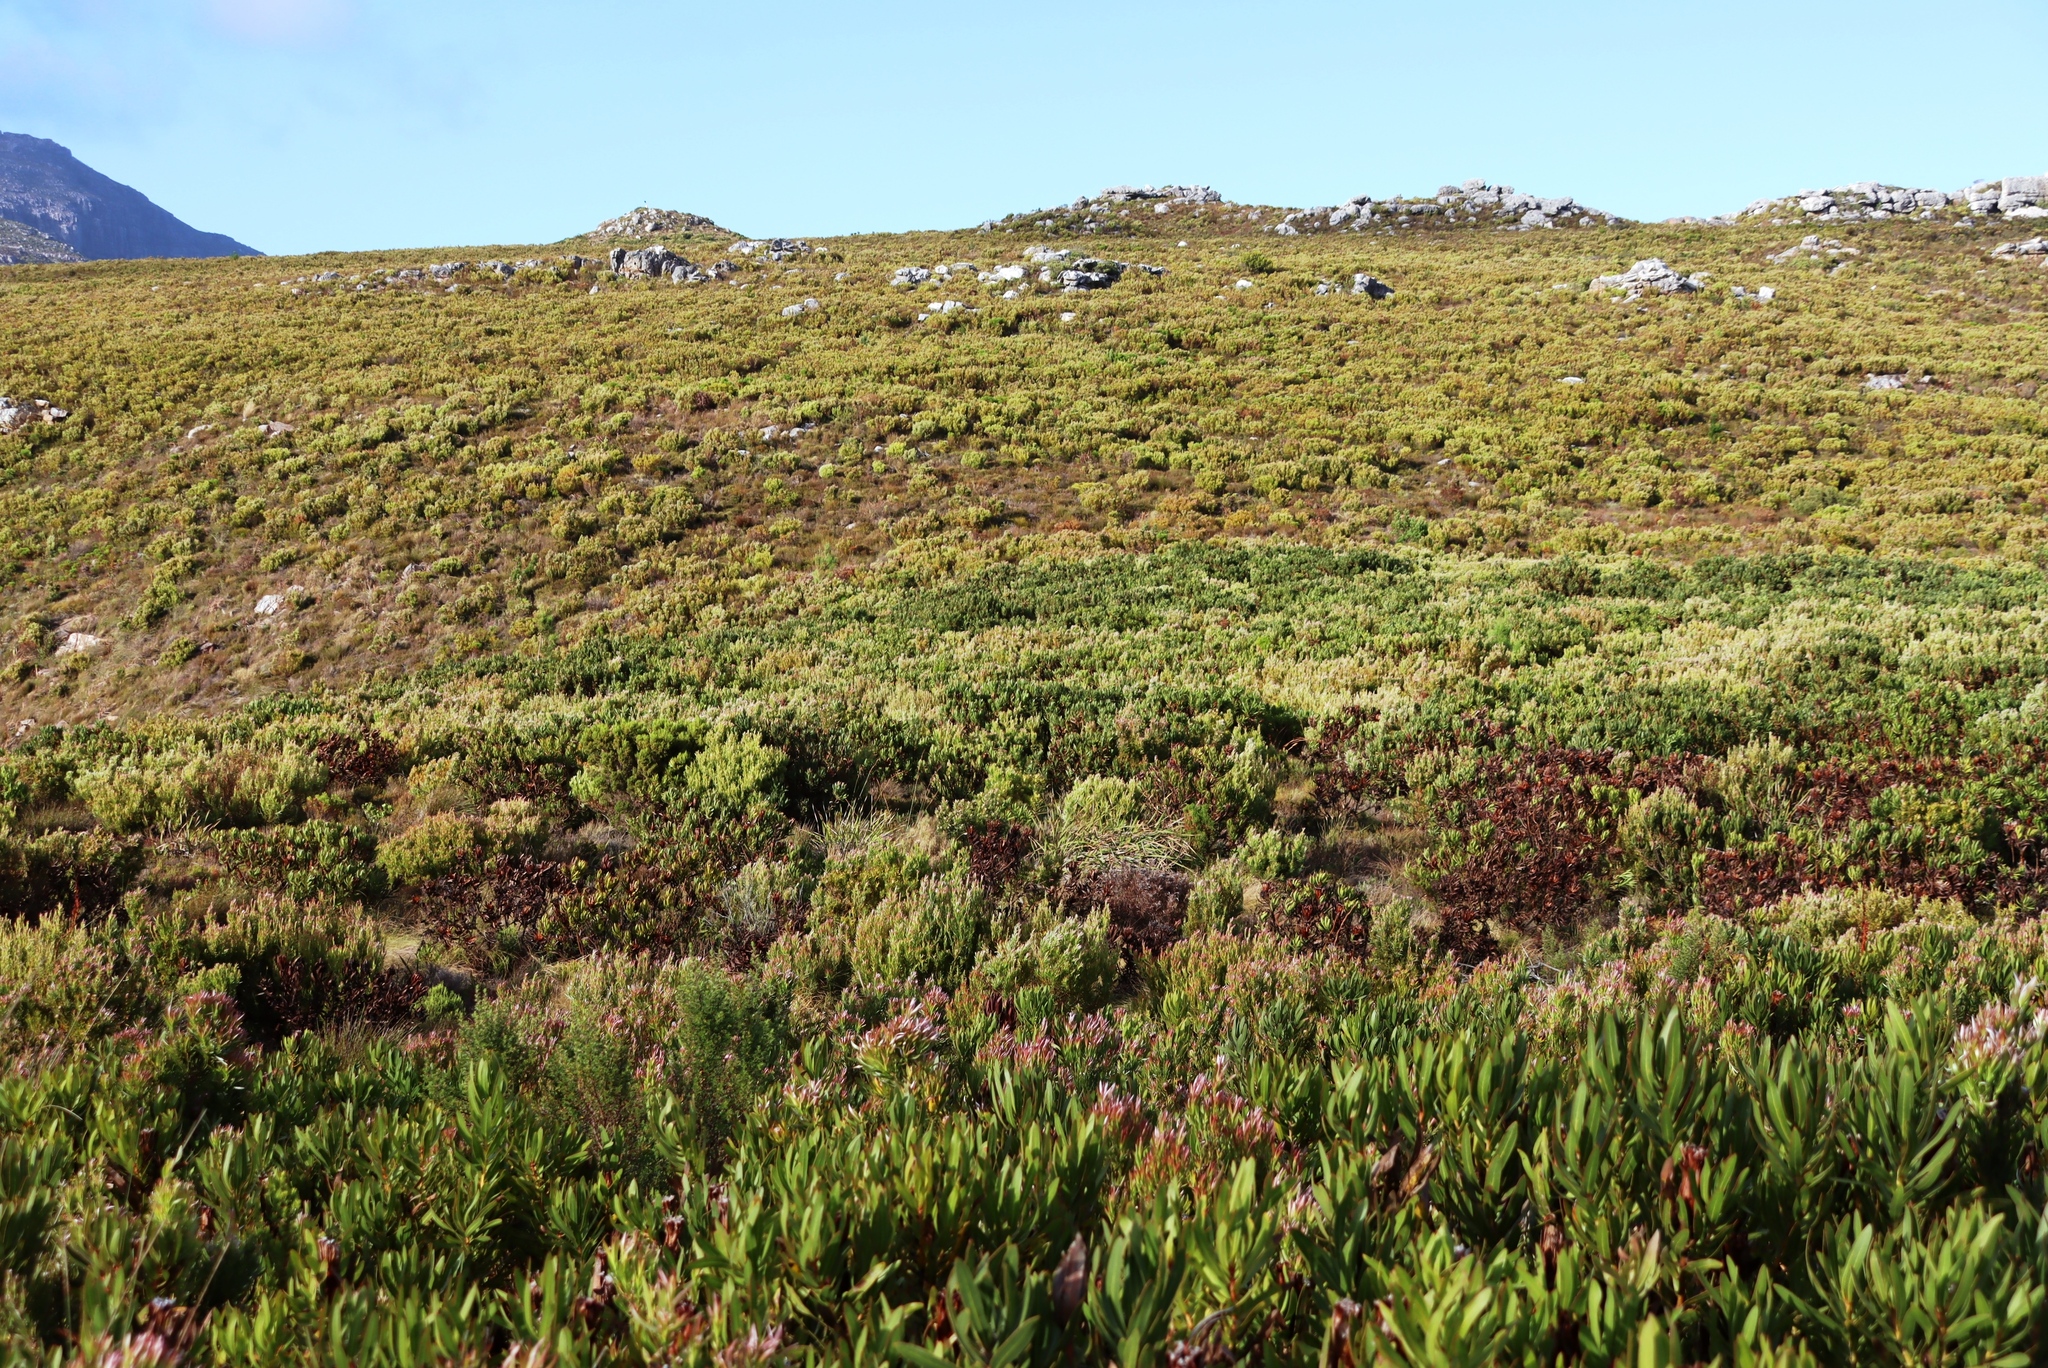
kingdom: Plantae
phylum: Tracheophyta
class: Magnoliopsida
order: Proteales
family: Proteaceae
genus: Protea
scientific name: Protea lepidocarpodendron
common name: Black-bearded protea
